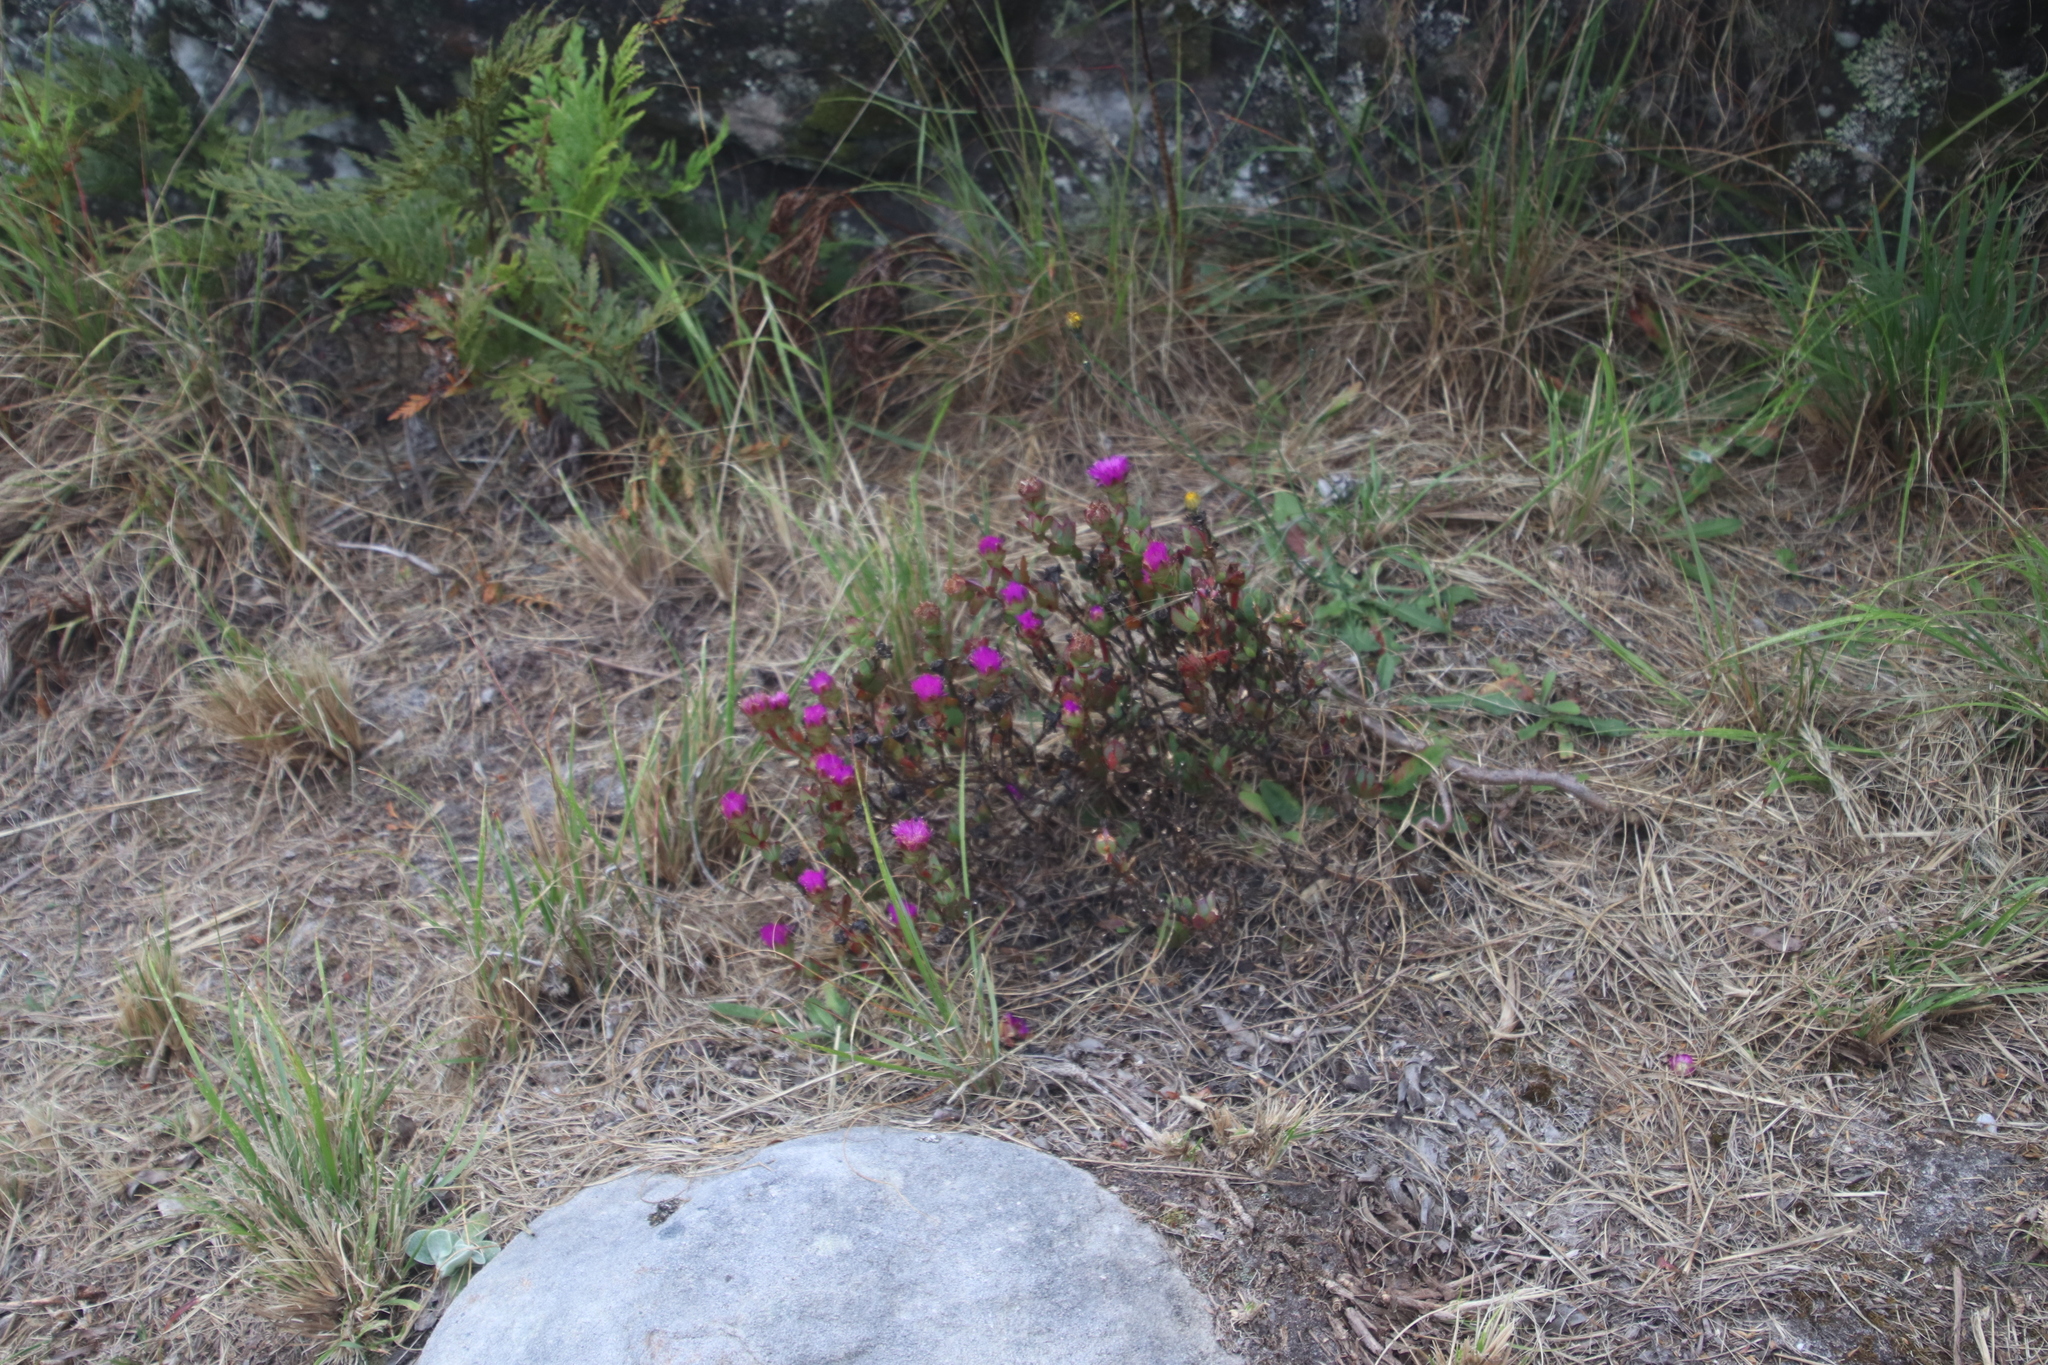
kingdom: Plantae
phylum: Tracheophyta
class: Magnoliopsida
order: Caryophyllales
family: Aizoaceae
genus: Erepsia
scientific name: Erepsia forficata
